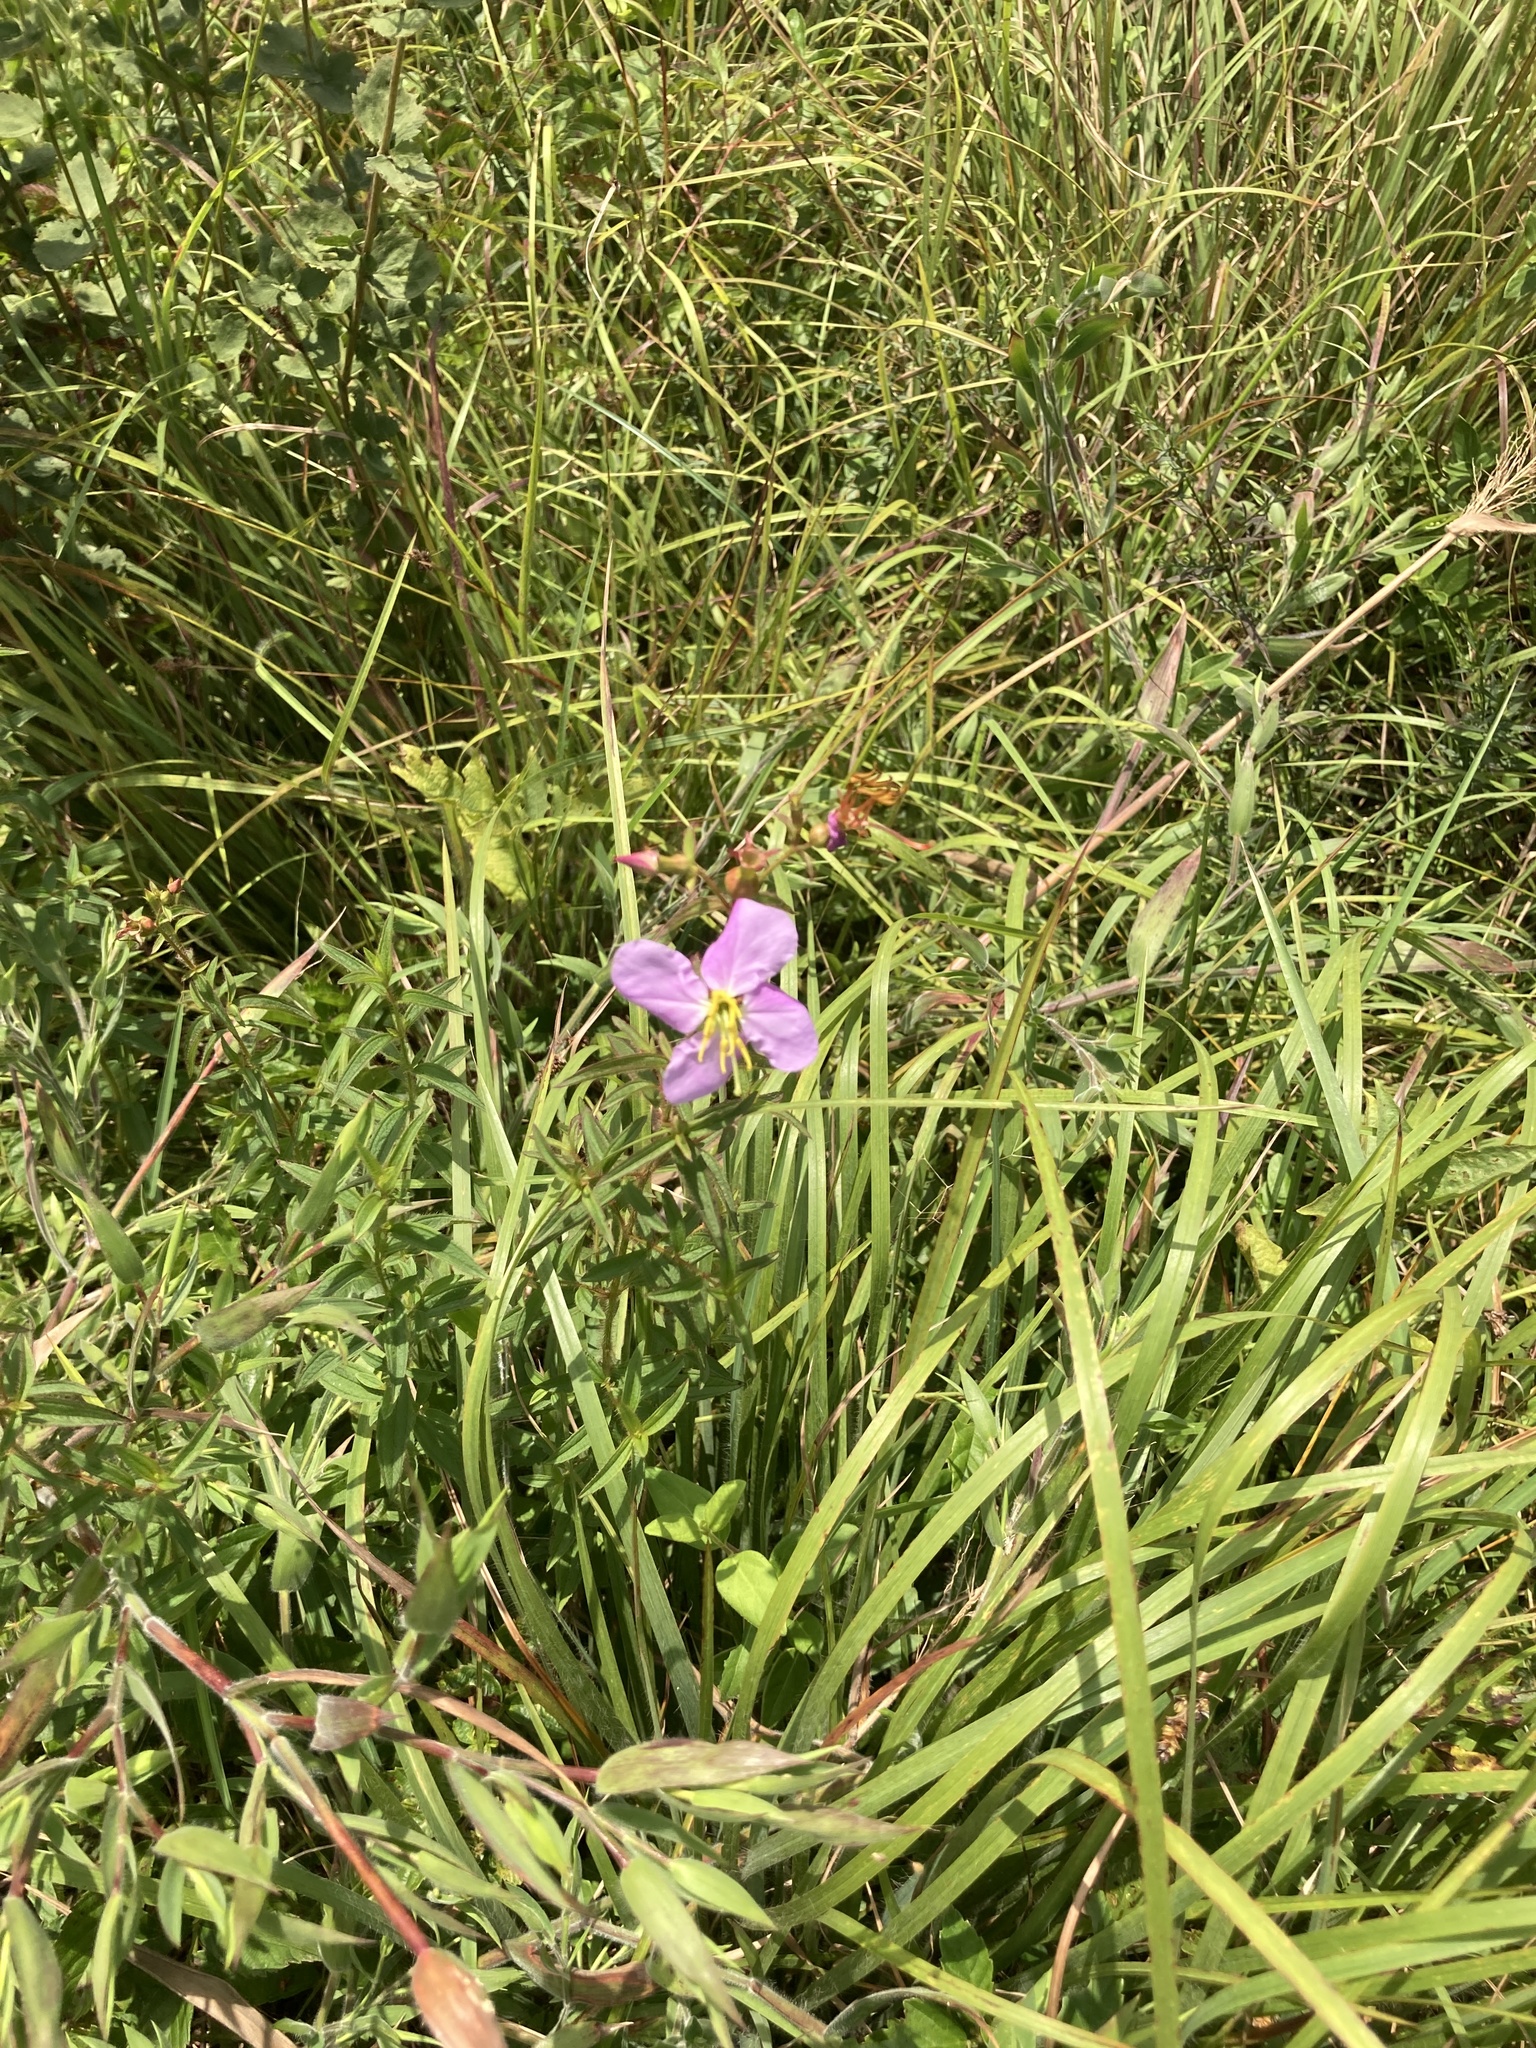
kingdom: Plantae
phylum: Tracheophyta
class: Magnoliopsida
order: Myrtales
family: Melastomataceae
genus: Rhexia
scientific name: Rhexia mariana
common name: Dull meadow-pitcher
